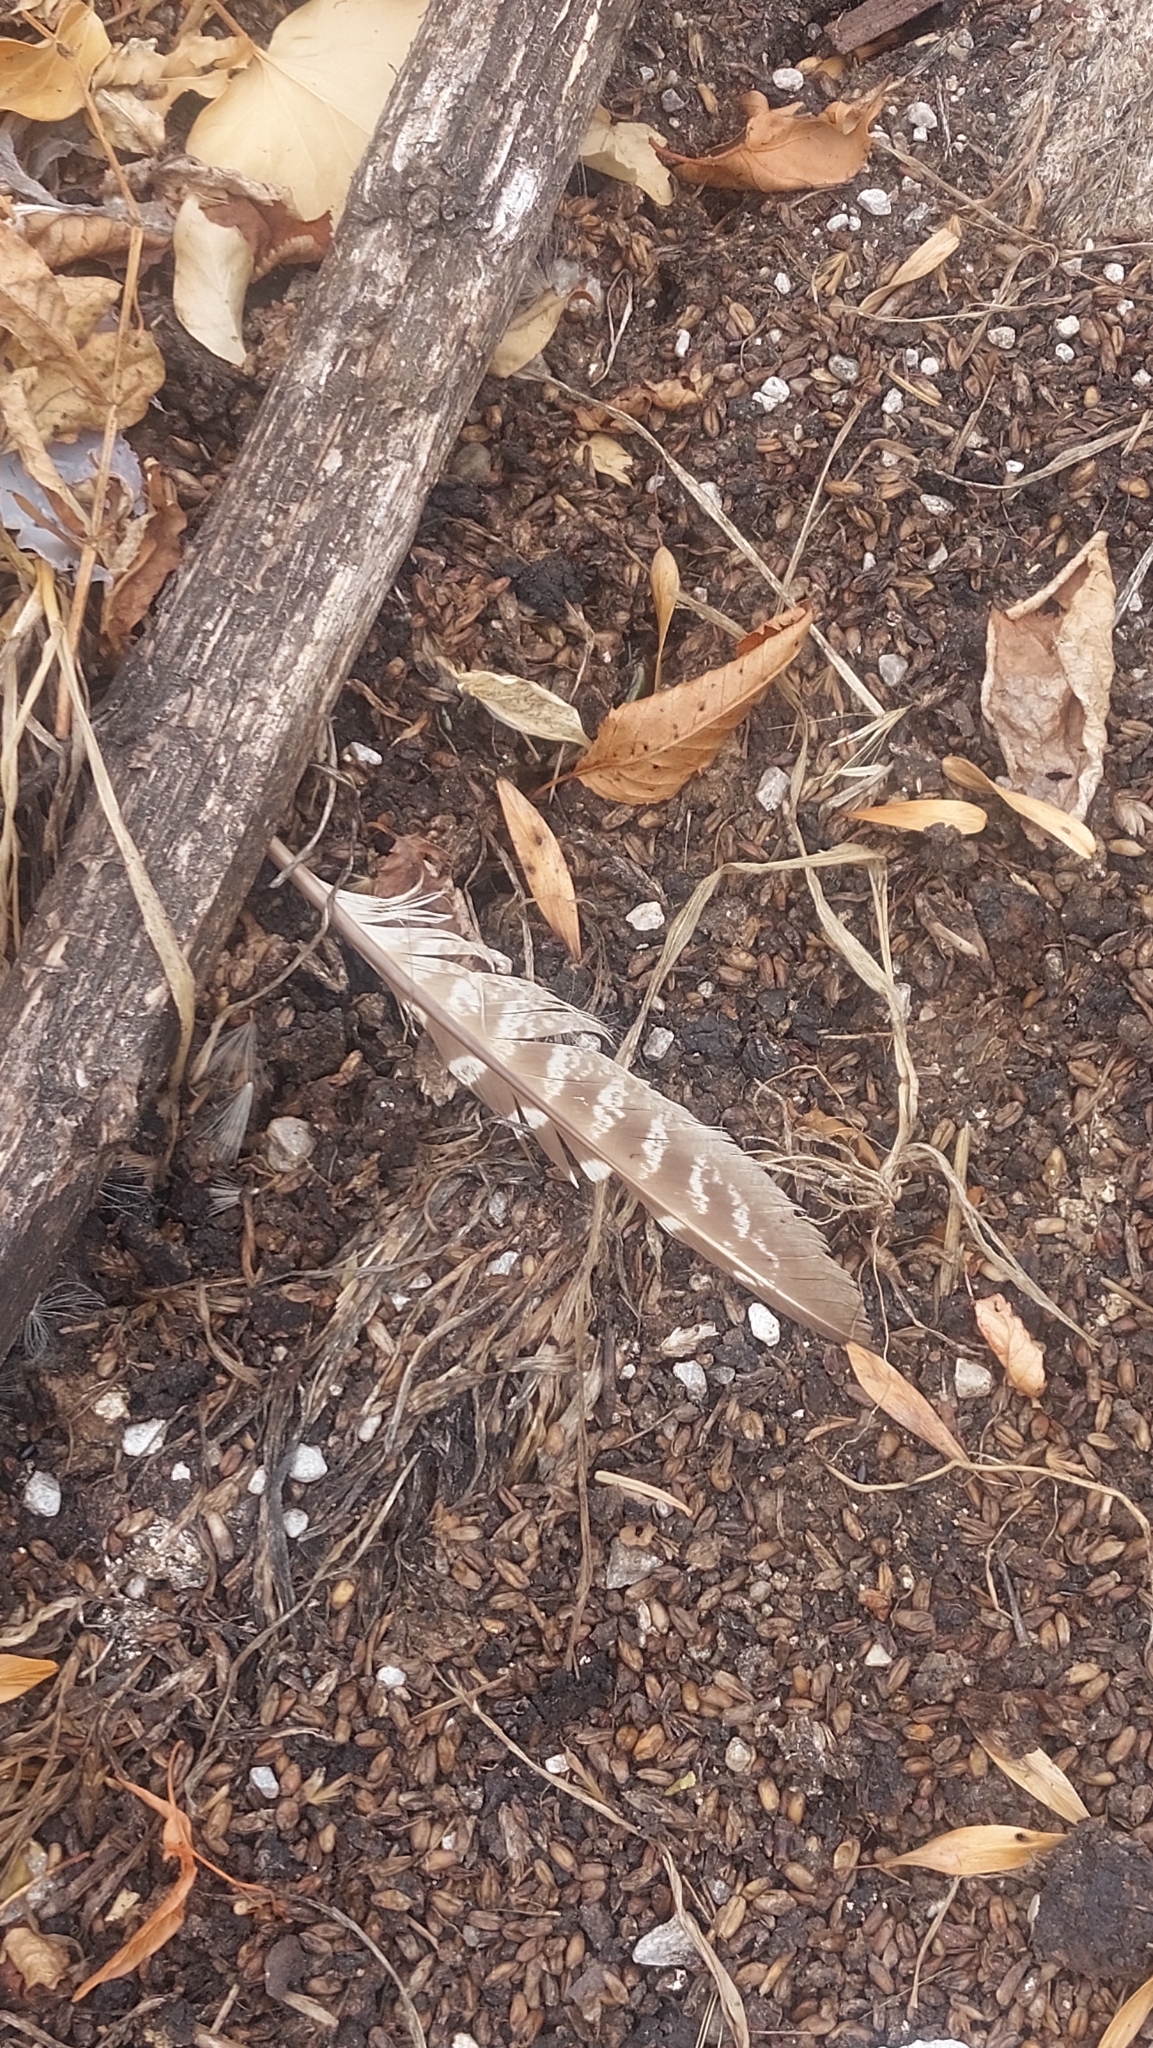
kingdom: Animalia
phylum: Chordata
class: Aves
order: Galliformes
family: Phasianidae
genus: Phasianus
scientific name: Phasianus colchicus
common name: Common pheasant
